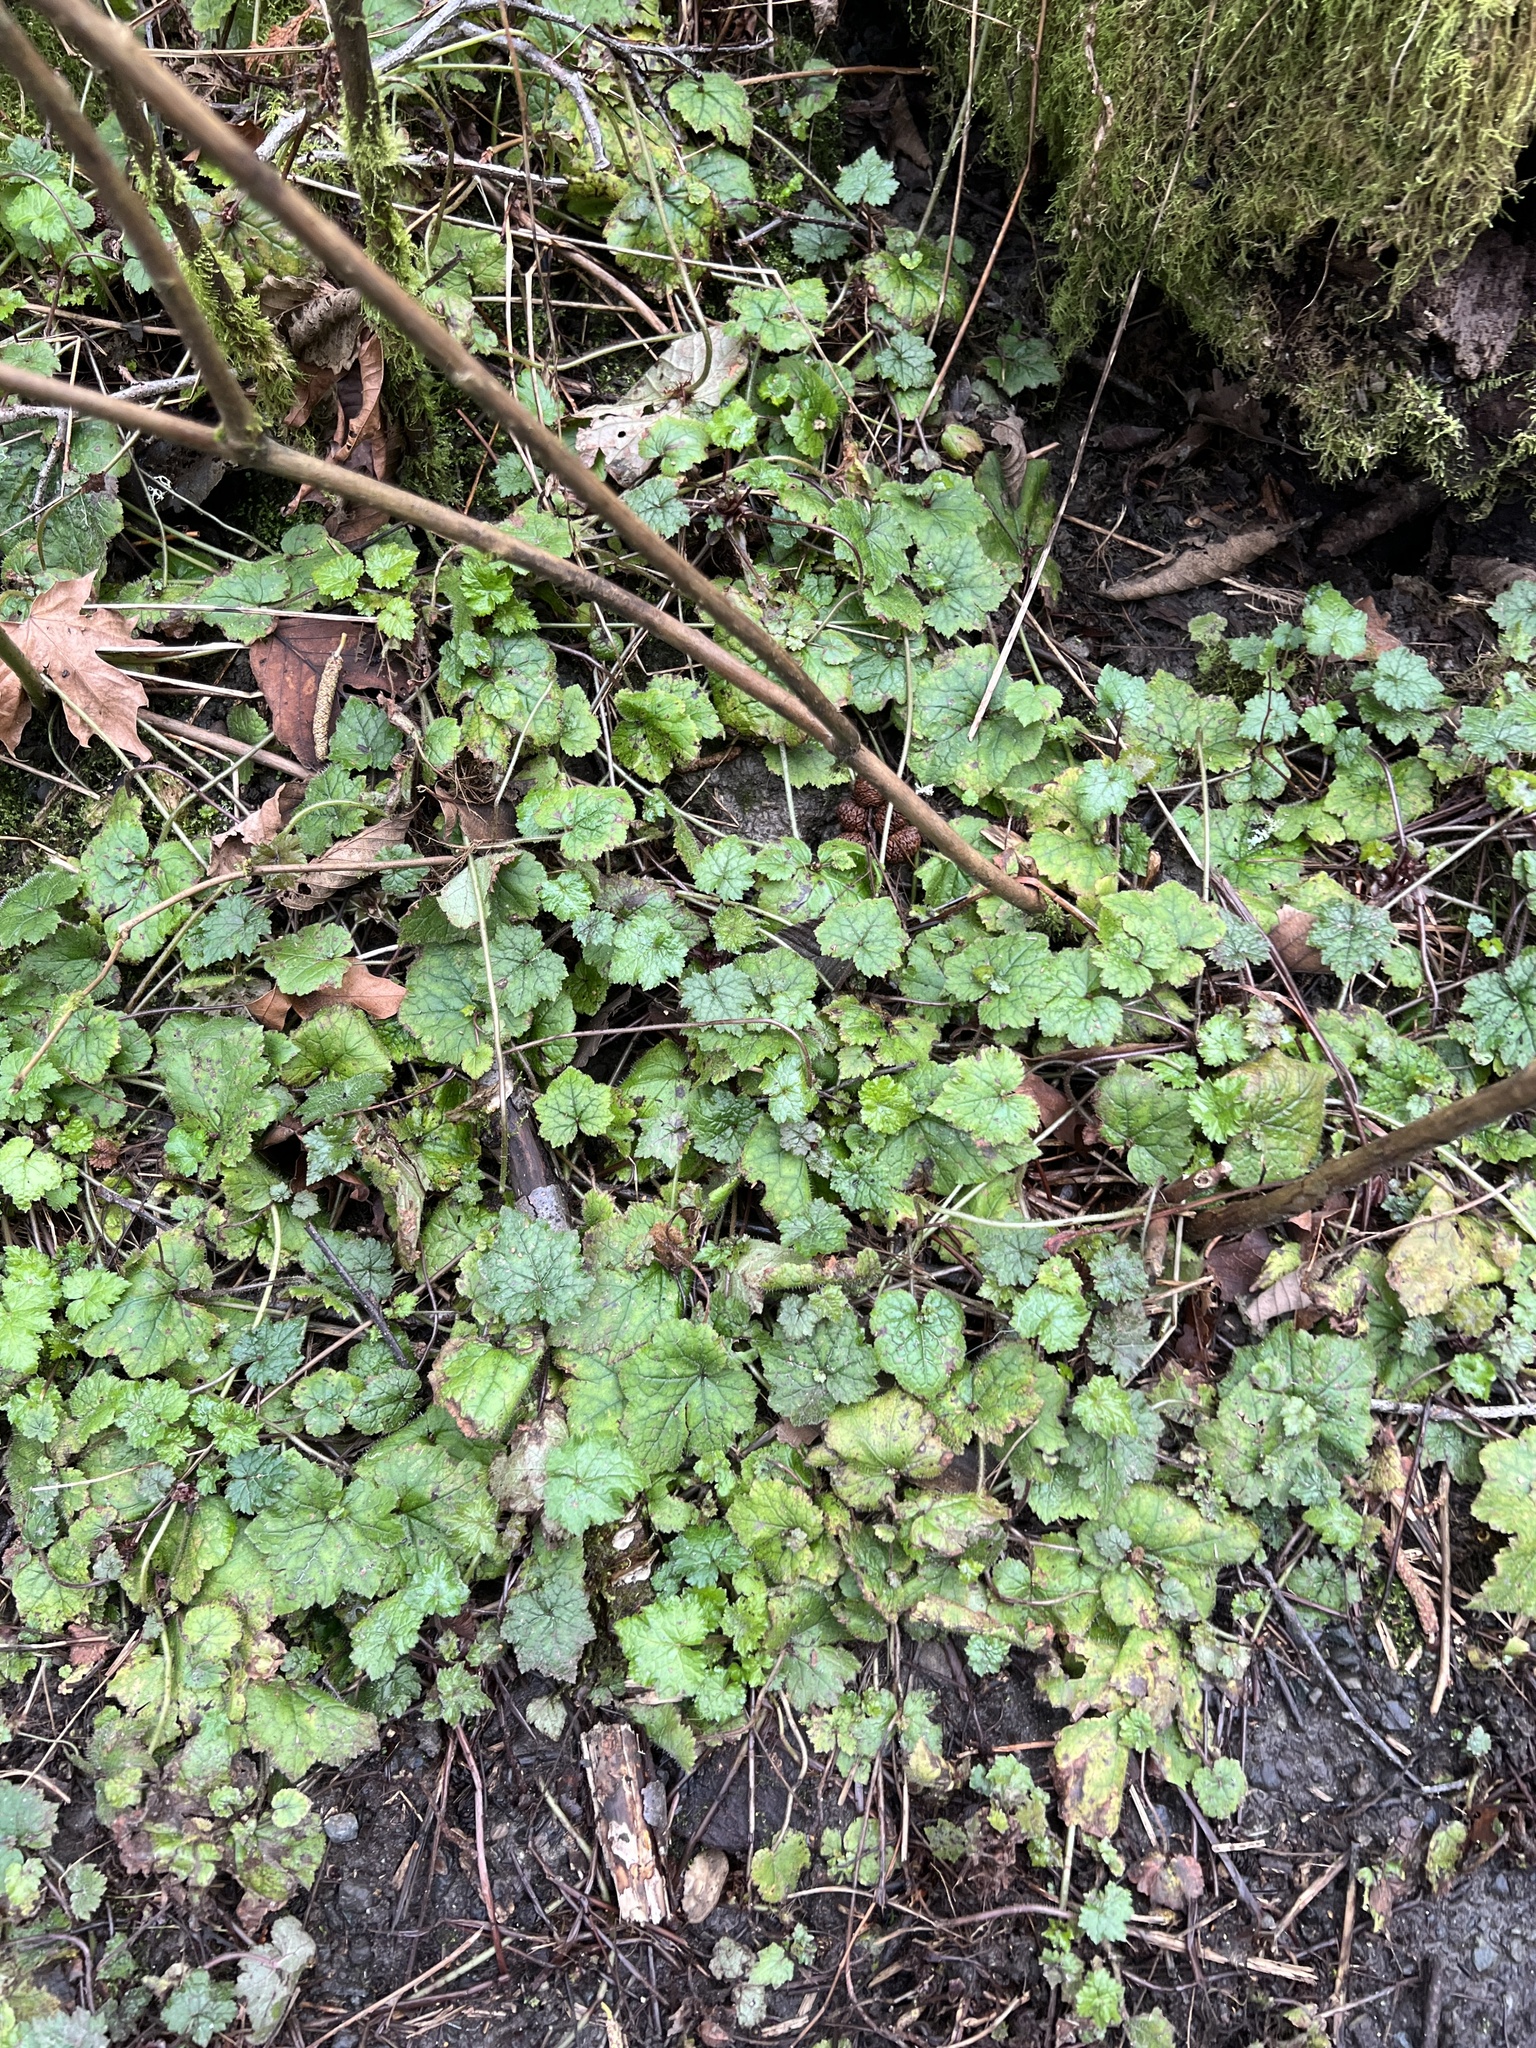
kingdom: Plantae
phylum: Tracheophyta
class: Magnoliopsida
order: Saxifragales
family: Saxifragaceae
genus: Tellima
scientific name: Tellima grandiflora
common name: Fringecups
